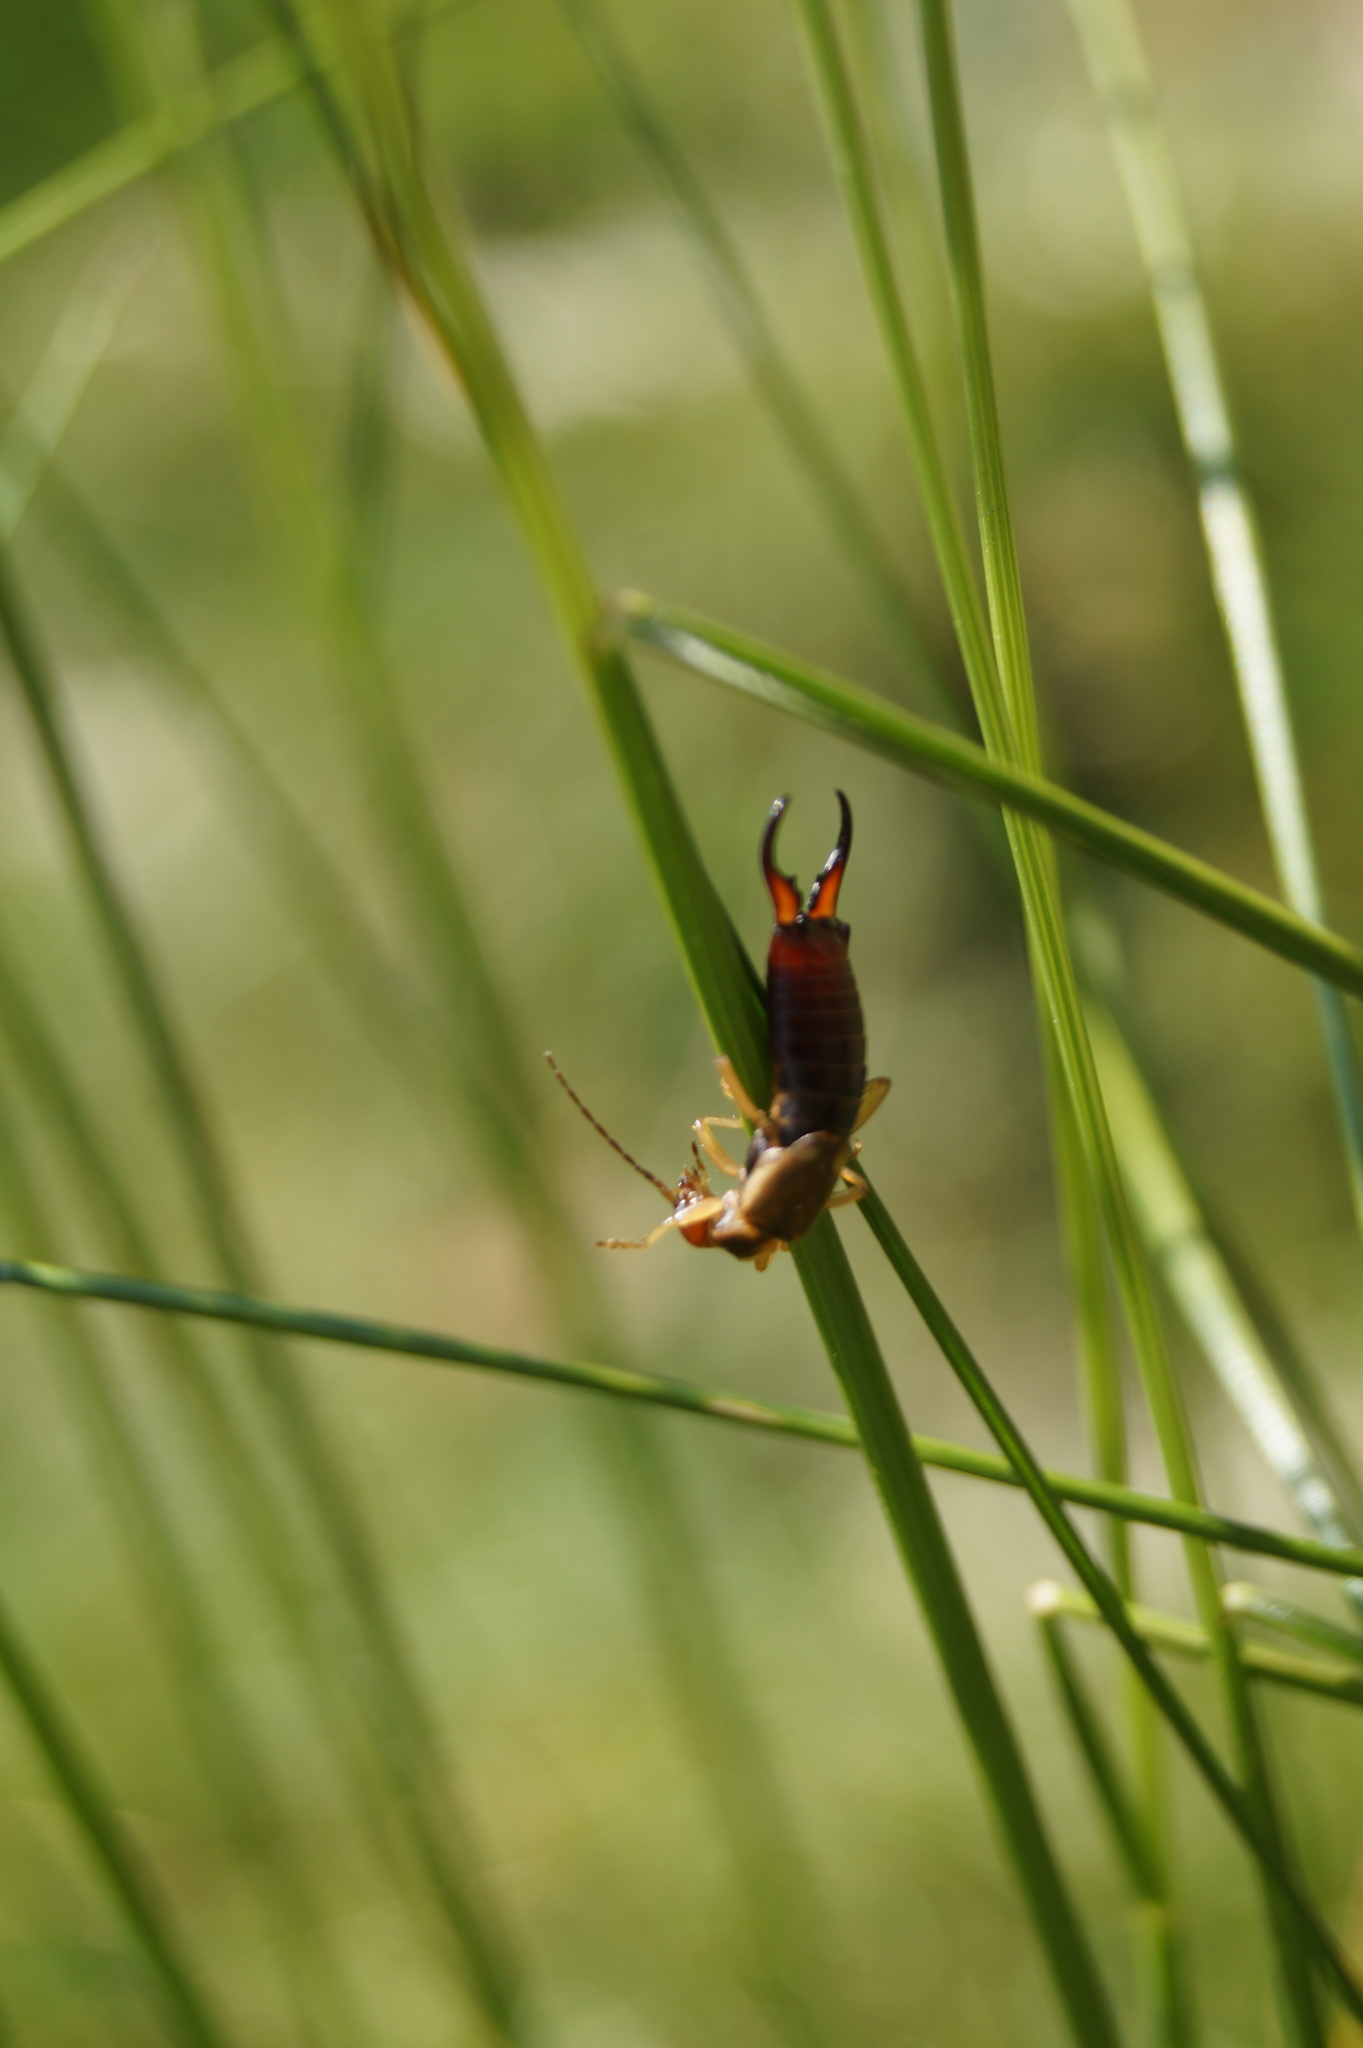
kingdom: Animalia
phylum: Arthropoda
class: Insecta
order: Dermaptera
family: Forficulidae
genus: Forficula
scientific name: Forficula
